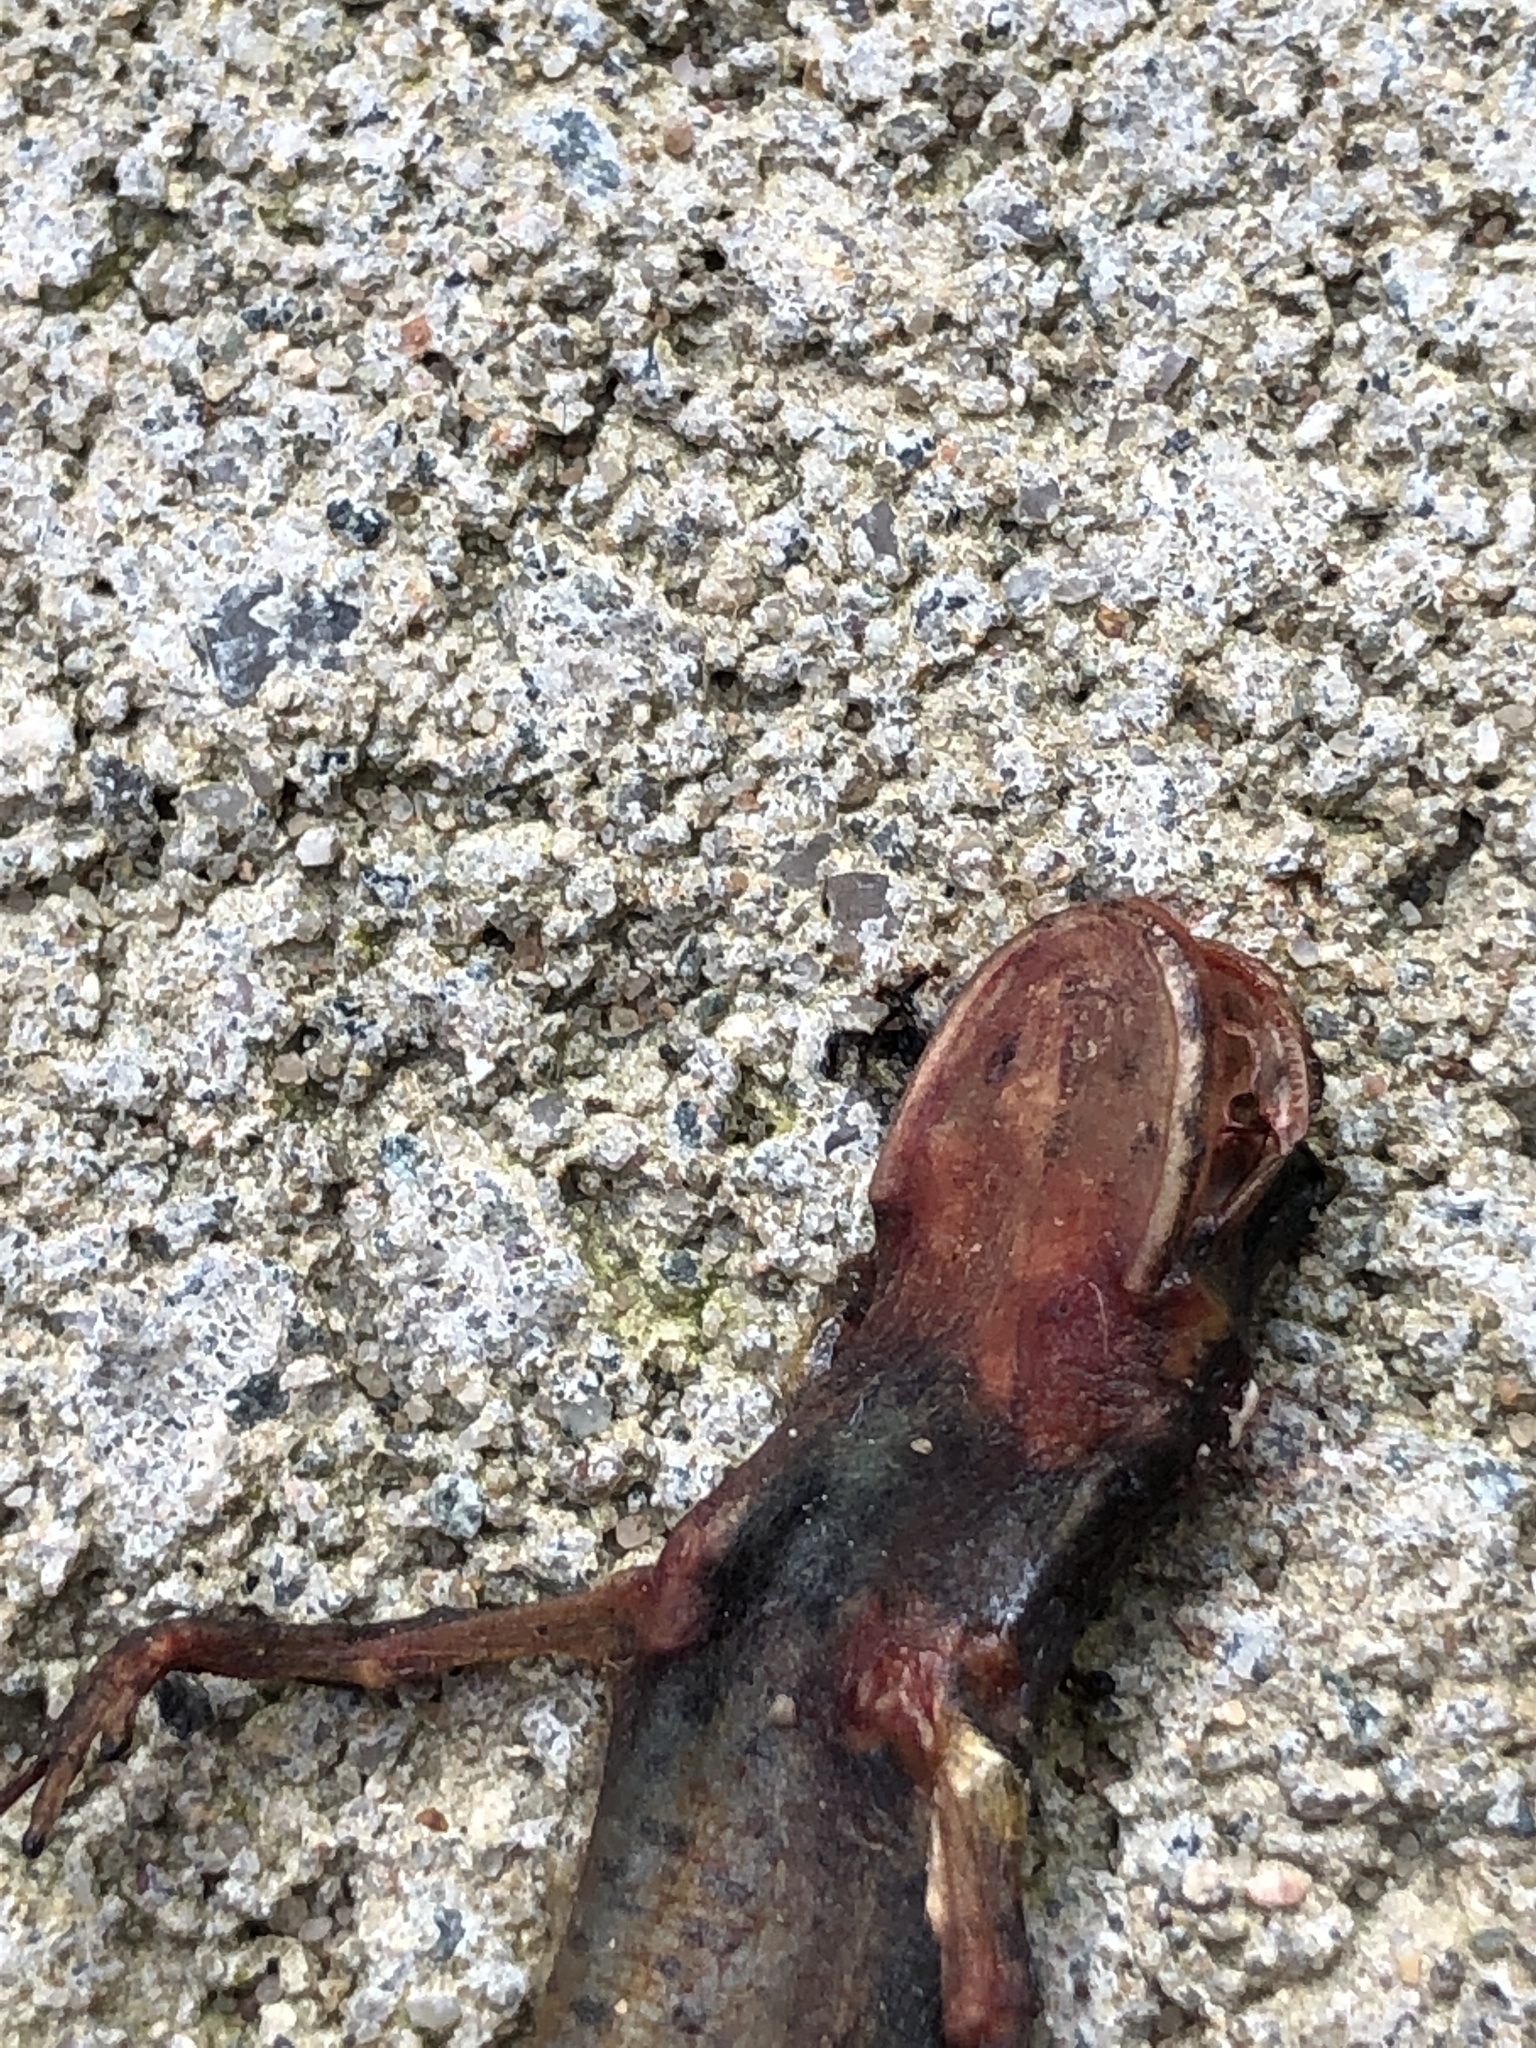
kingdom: Animalia
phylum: Chordata
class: Amphibia
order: Caudata
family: Salamandridae
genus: Triturus
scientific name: Triturus cristatus
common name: Crested newt
